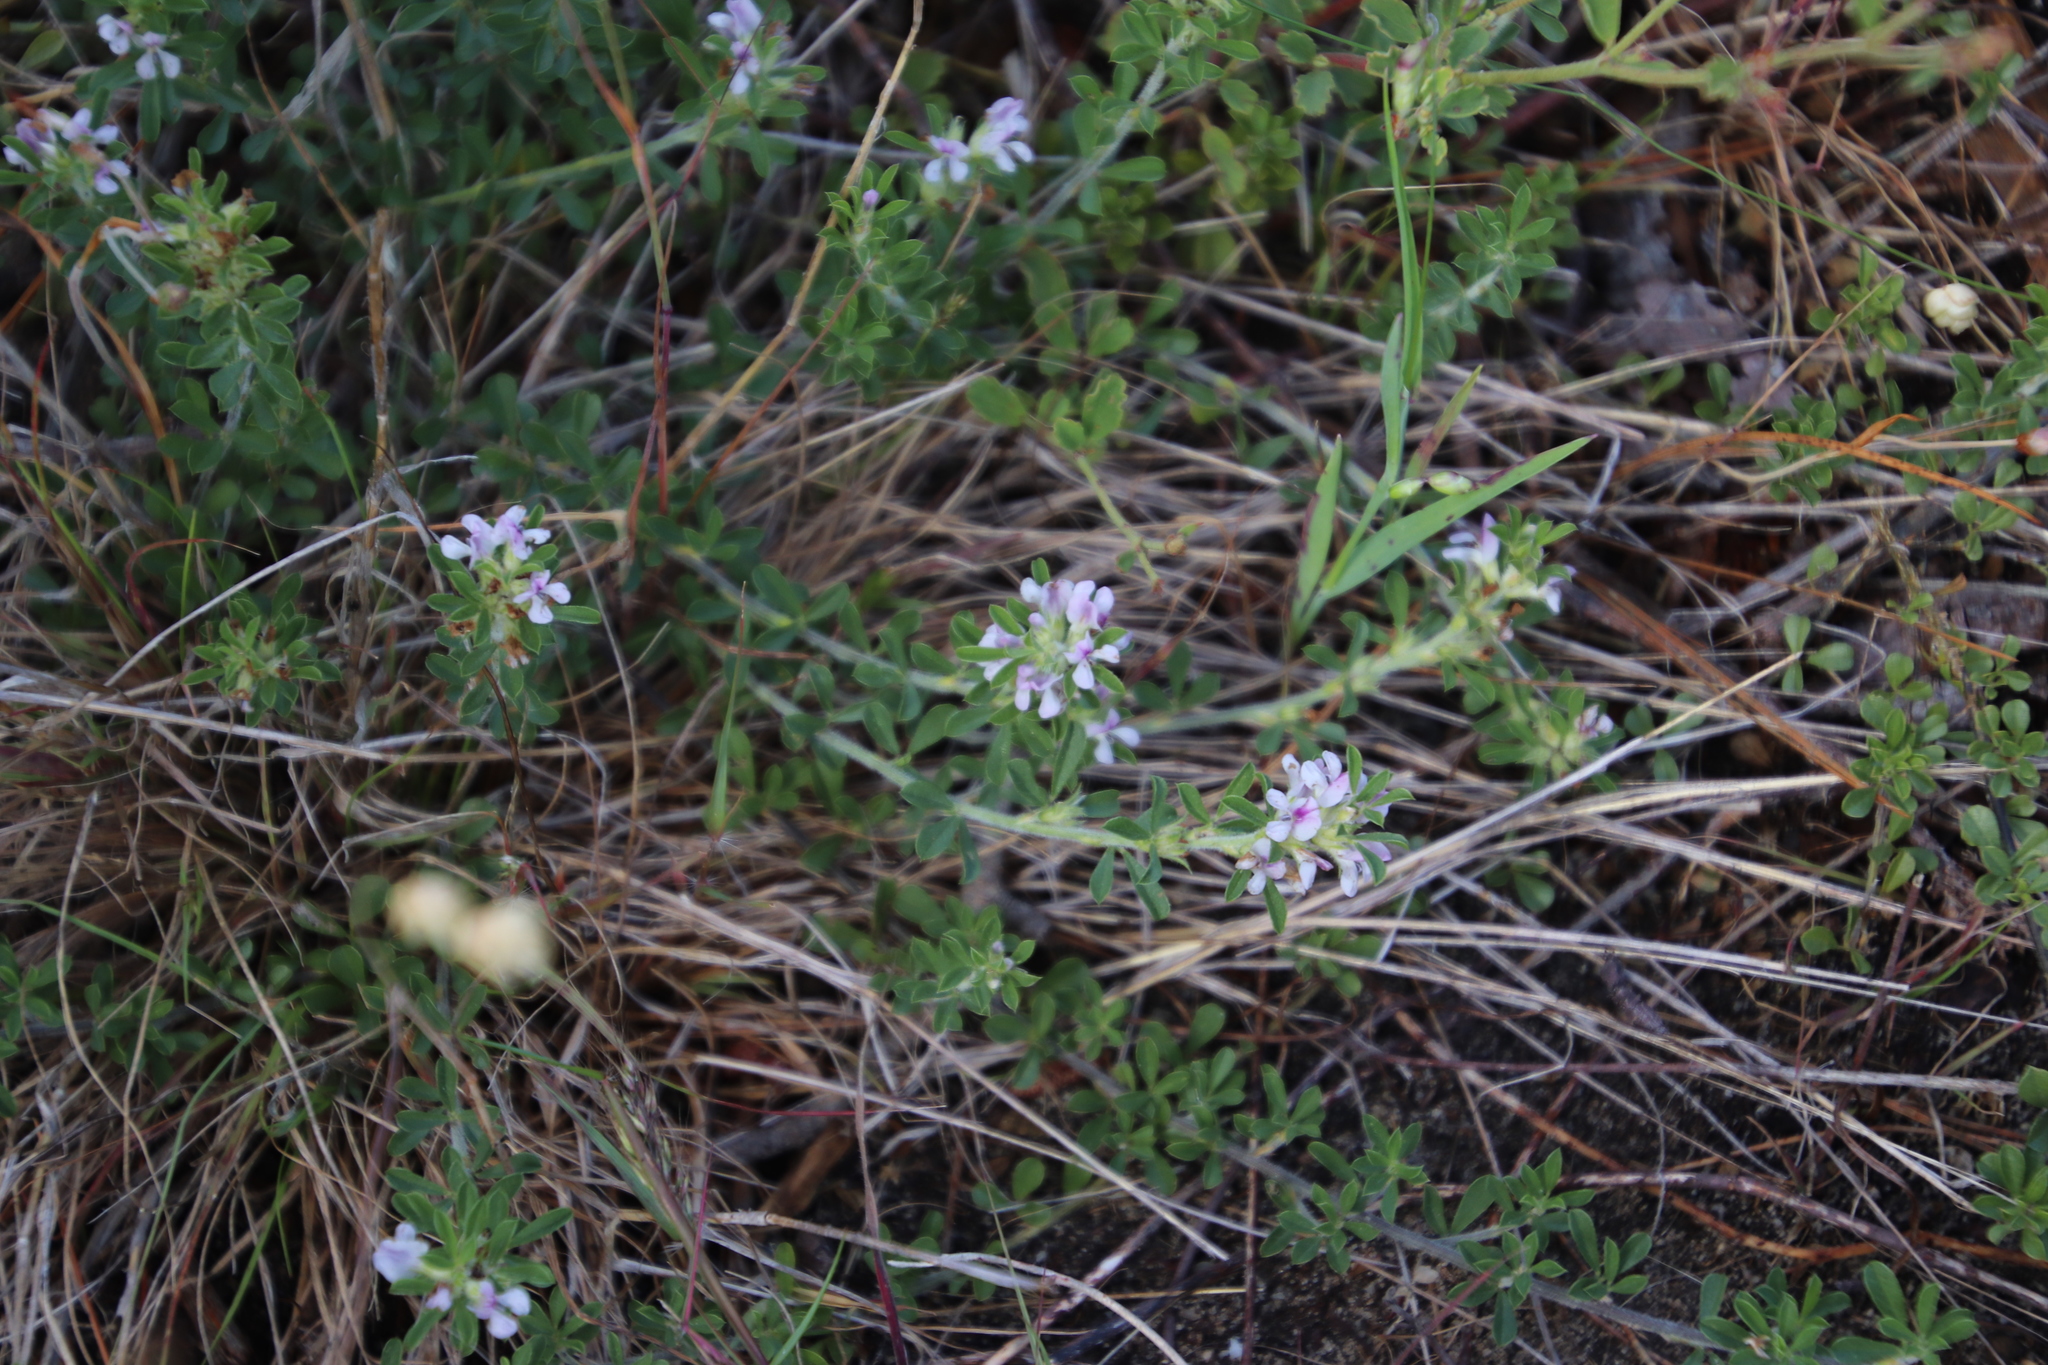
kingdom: Plantae
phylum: Tracheophyta
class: Magnoliopsida
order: Fabales
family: Fabaceae
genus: Psoralea
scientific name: Psoralea
